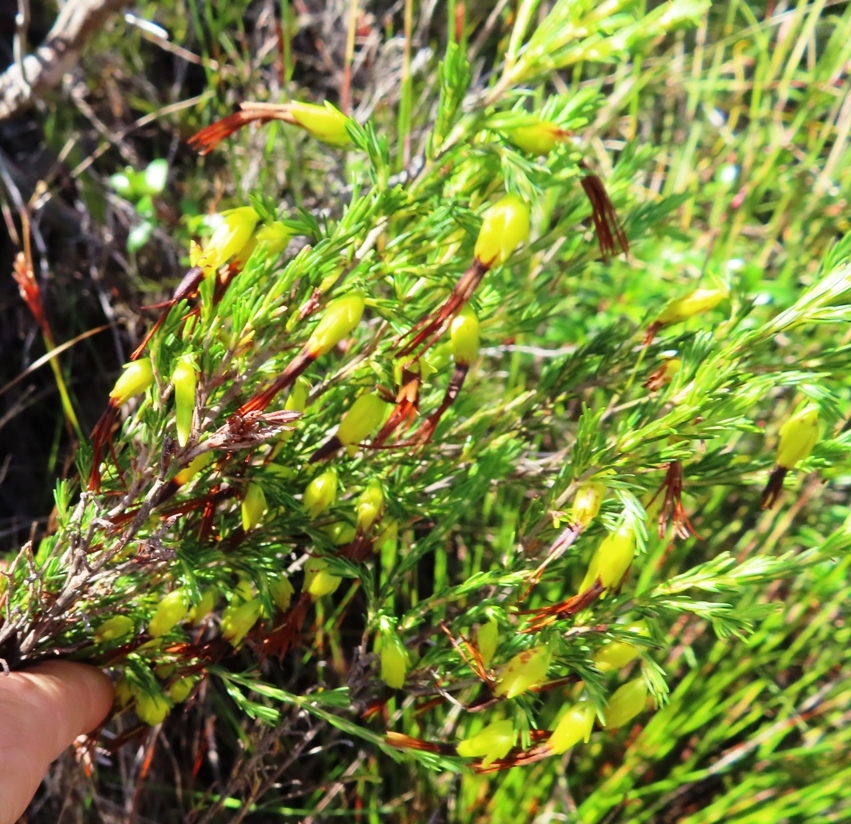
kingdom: Plantae
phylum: Tracheophyta
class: Magnoliopsida
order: Ericales
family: Ericaceae
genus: Erica
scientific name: Erica melastoma
